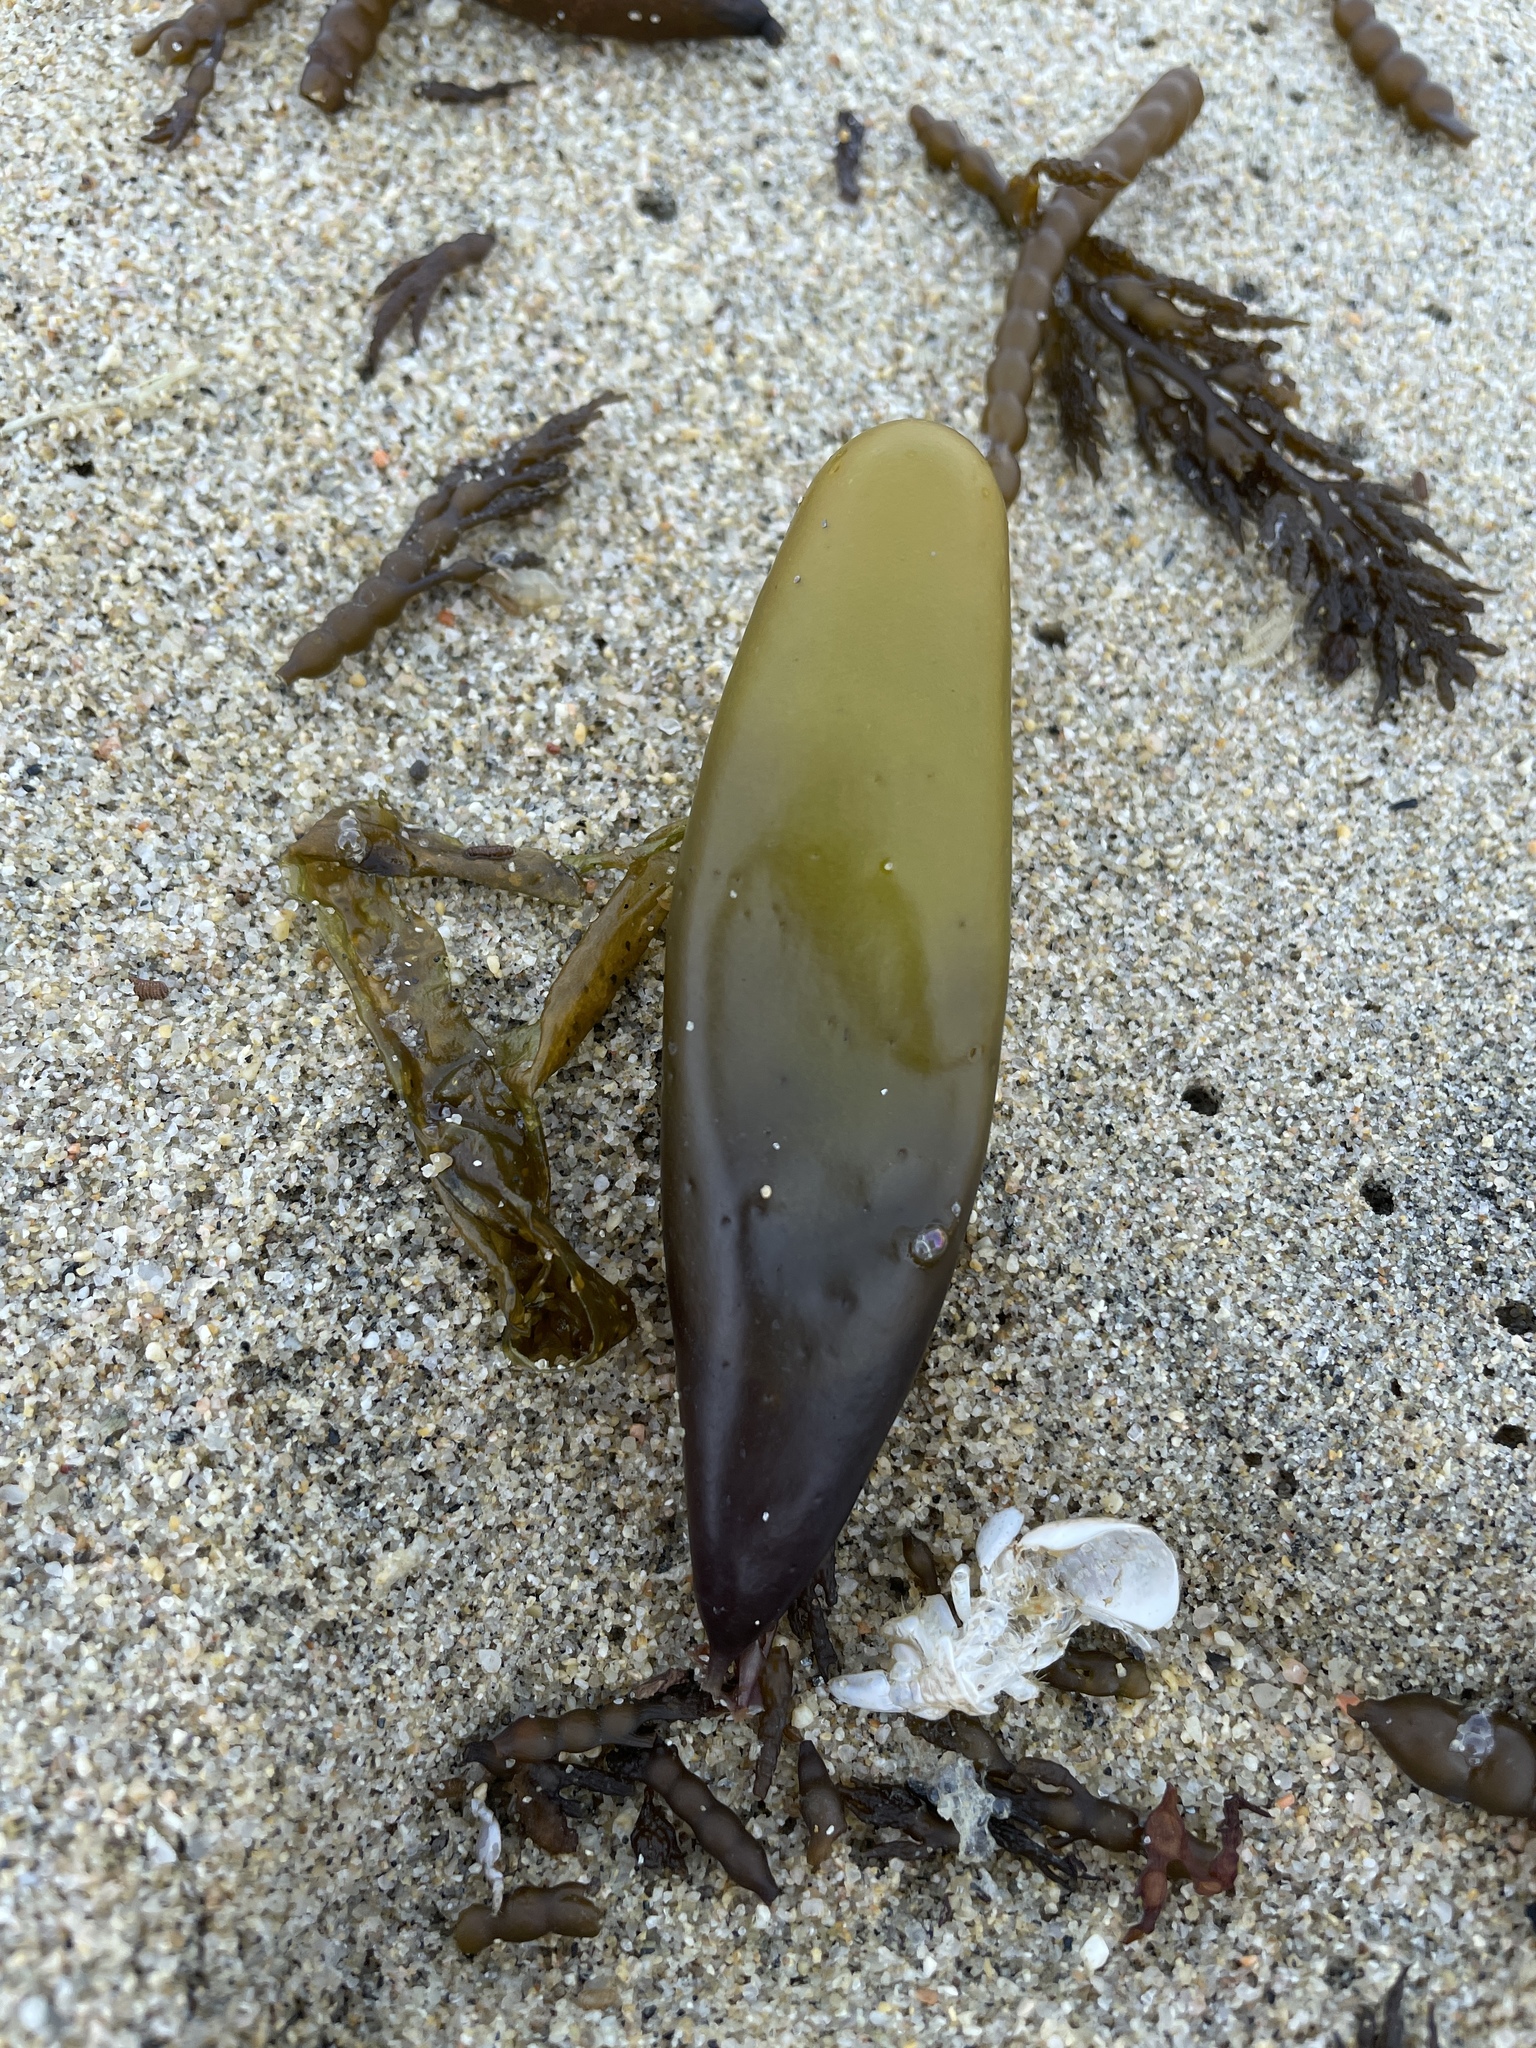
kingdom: Plantae
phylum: Rhodophyta
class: Florideophyceae
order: Palmariales
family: Palmariaceae
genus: Halosaccion
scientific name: Halosaccion glandiforme
